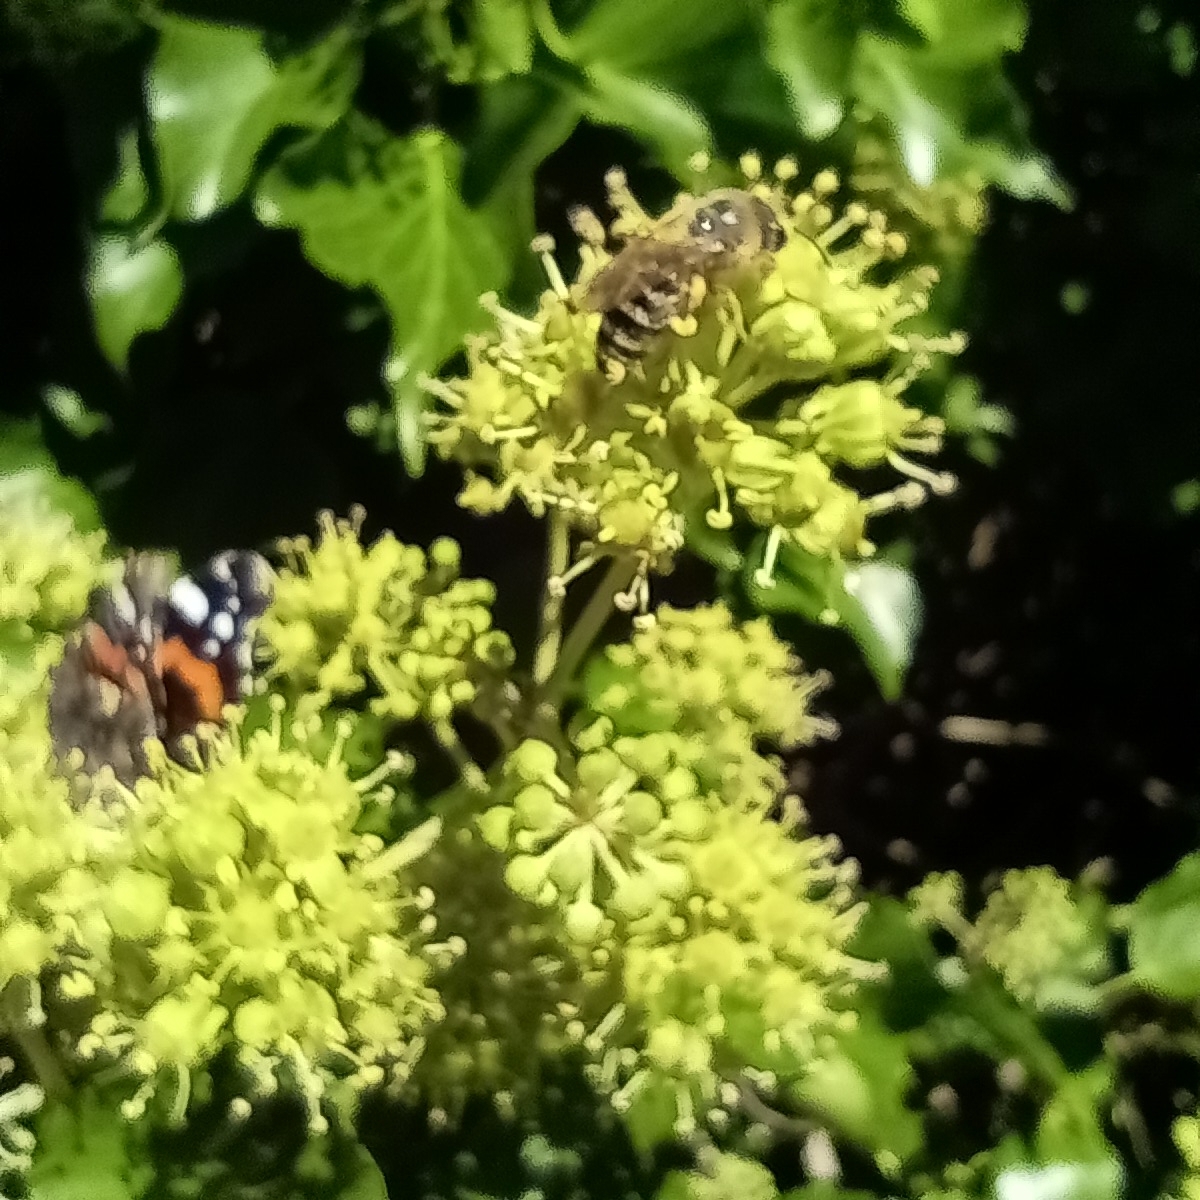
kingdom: Animalia
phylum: Arthropoda
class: Insecta
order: Hymenoptera
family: Colletidae
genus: Colletes
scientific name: Colletes hederae
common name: Ivy bee
